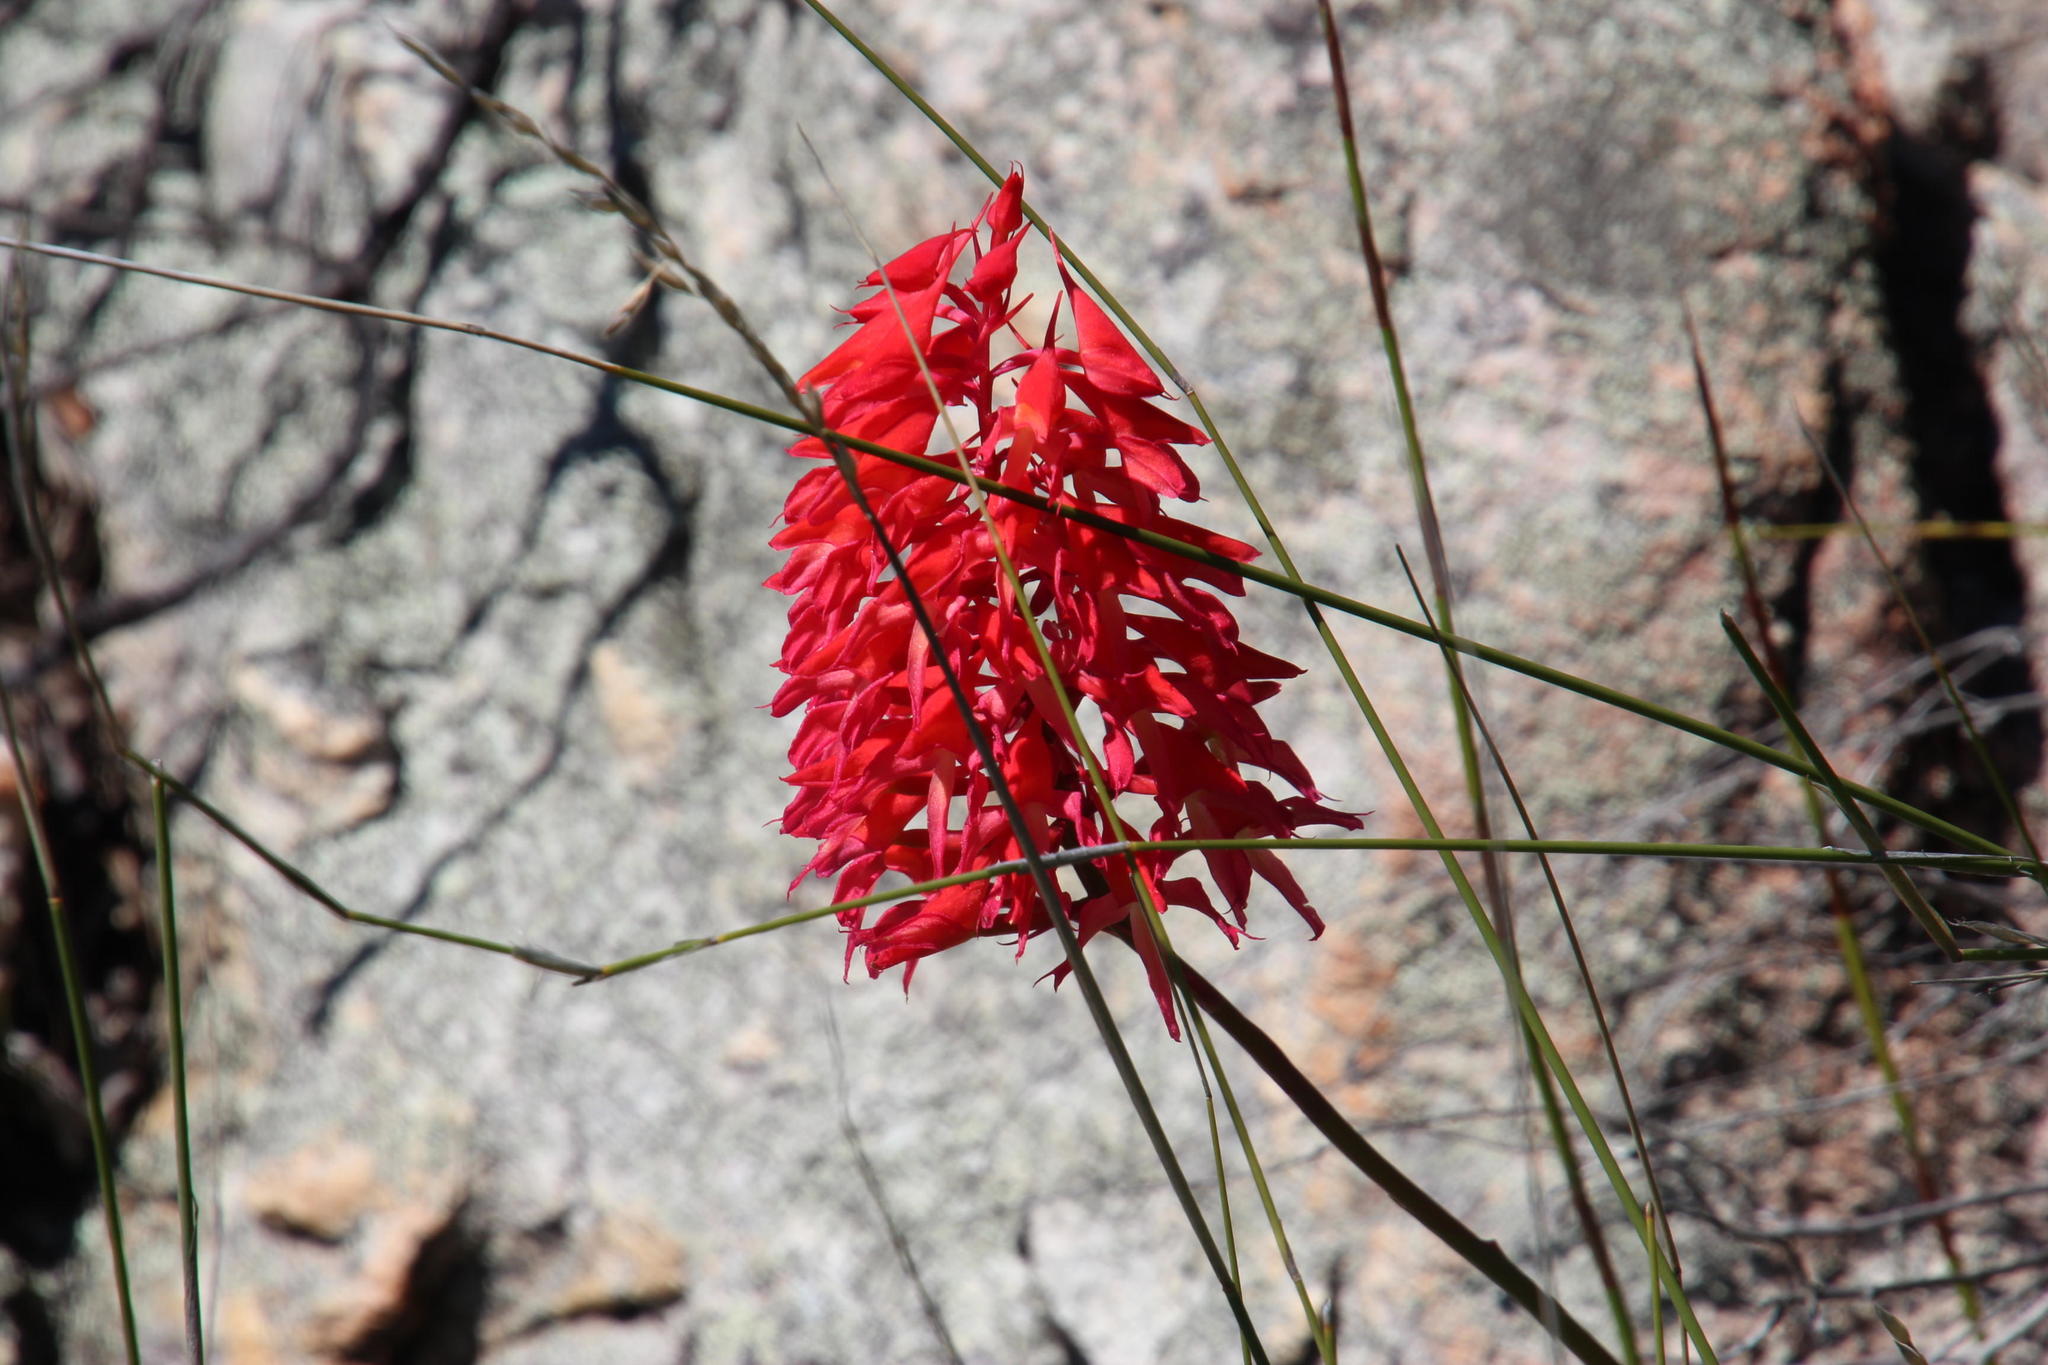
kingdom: Plantae
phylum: Tracheophyta
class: Liliopsida
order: Asparagales
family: Orchidaceae
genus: Disa
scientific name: Disa ferruginea
